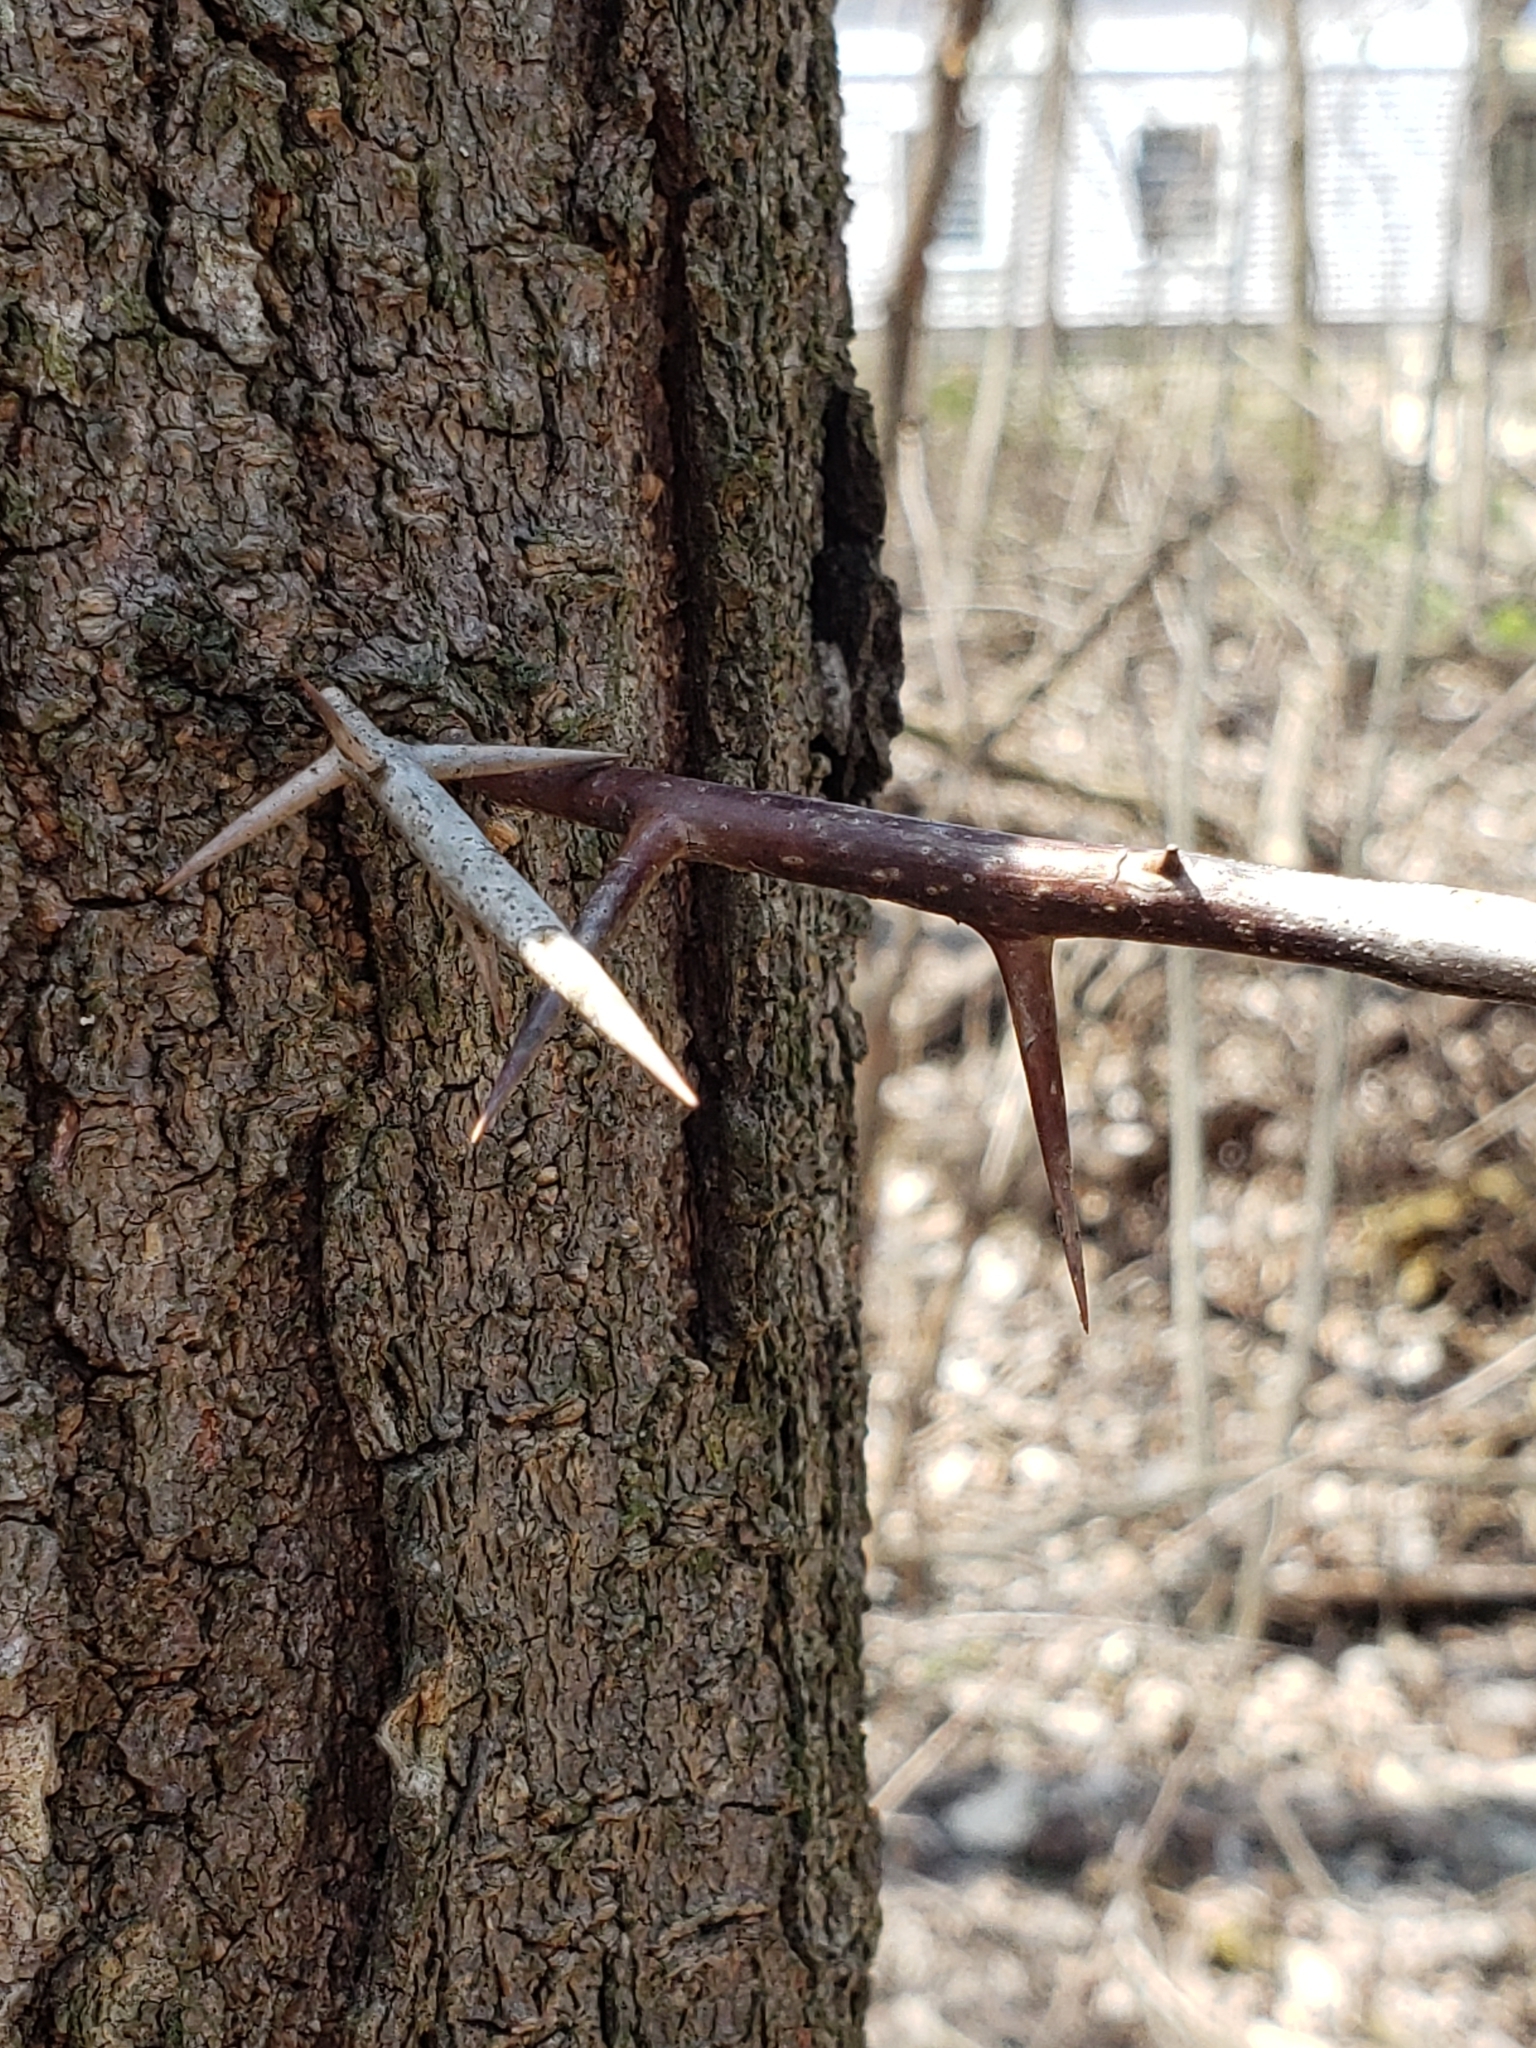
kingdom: Plantae
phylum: Tracheophyta
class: Magnoliopsida
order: Fabales
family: Fabaceae
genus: Gleditsia
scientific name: Gleditsia triacanthos
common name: Common honeylocust
